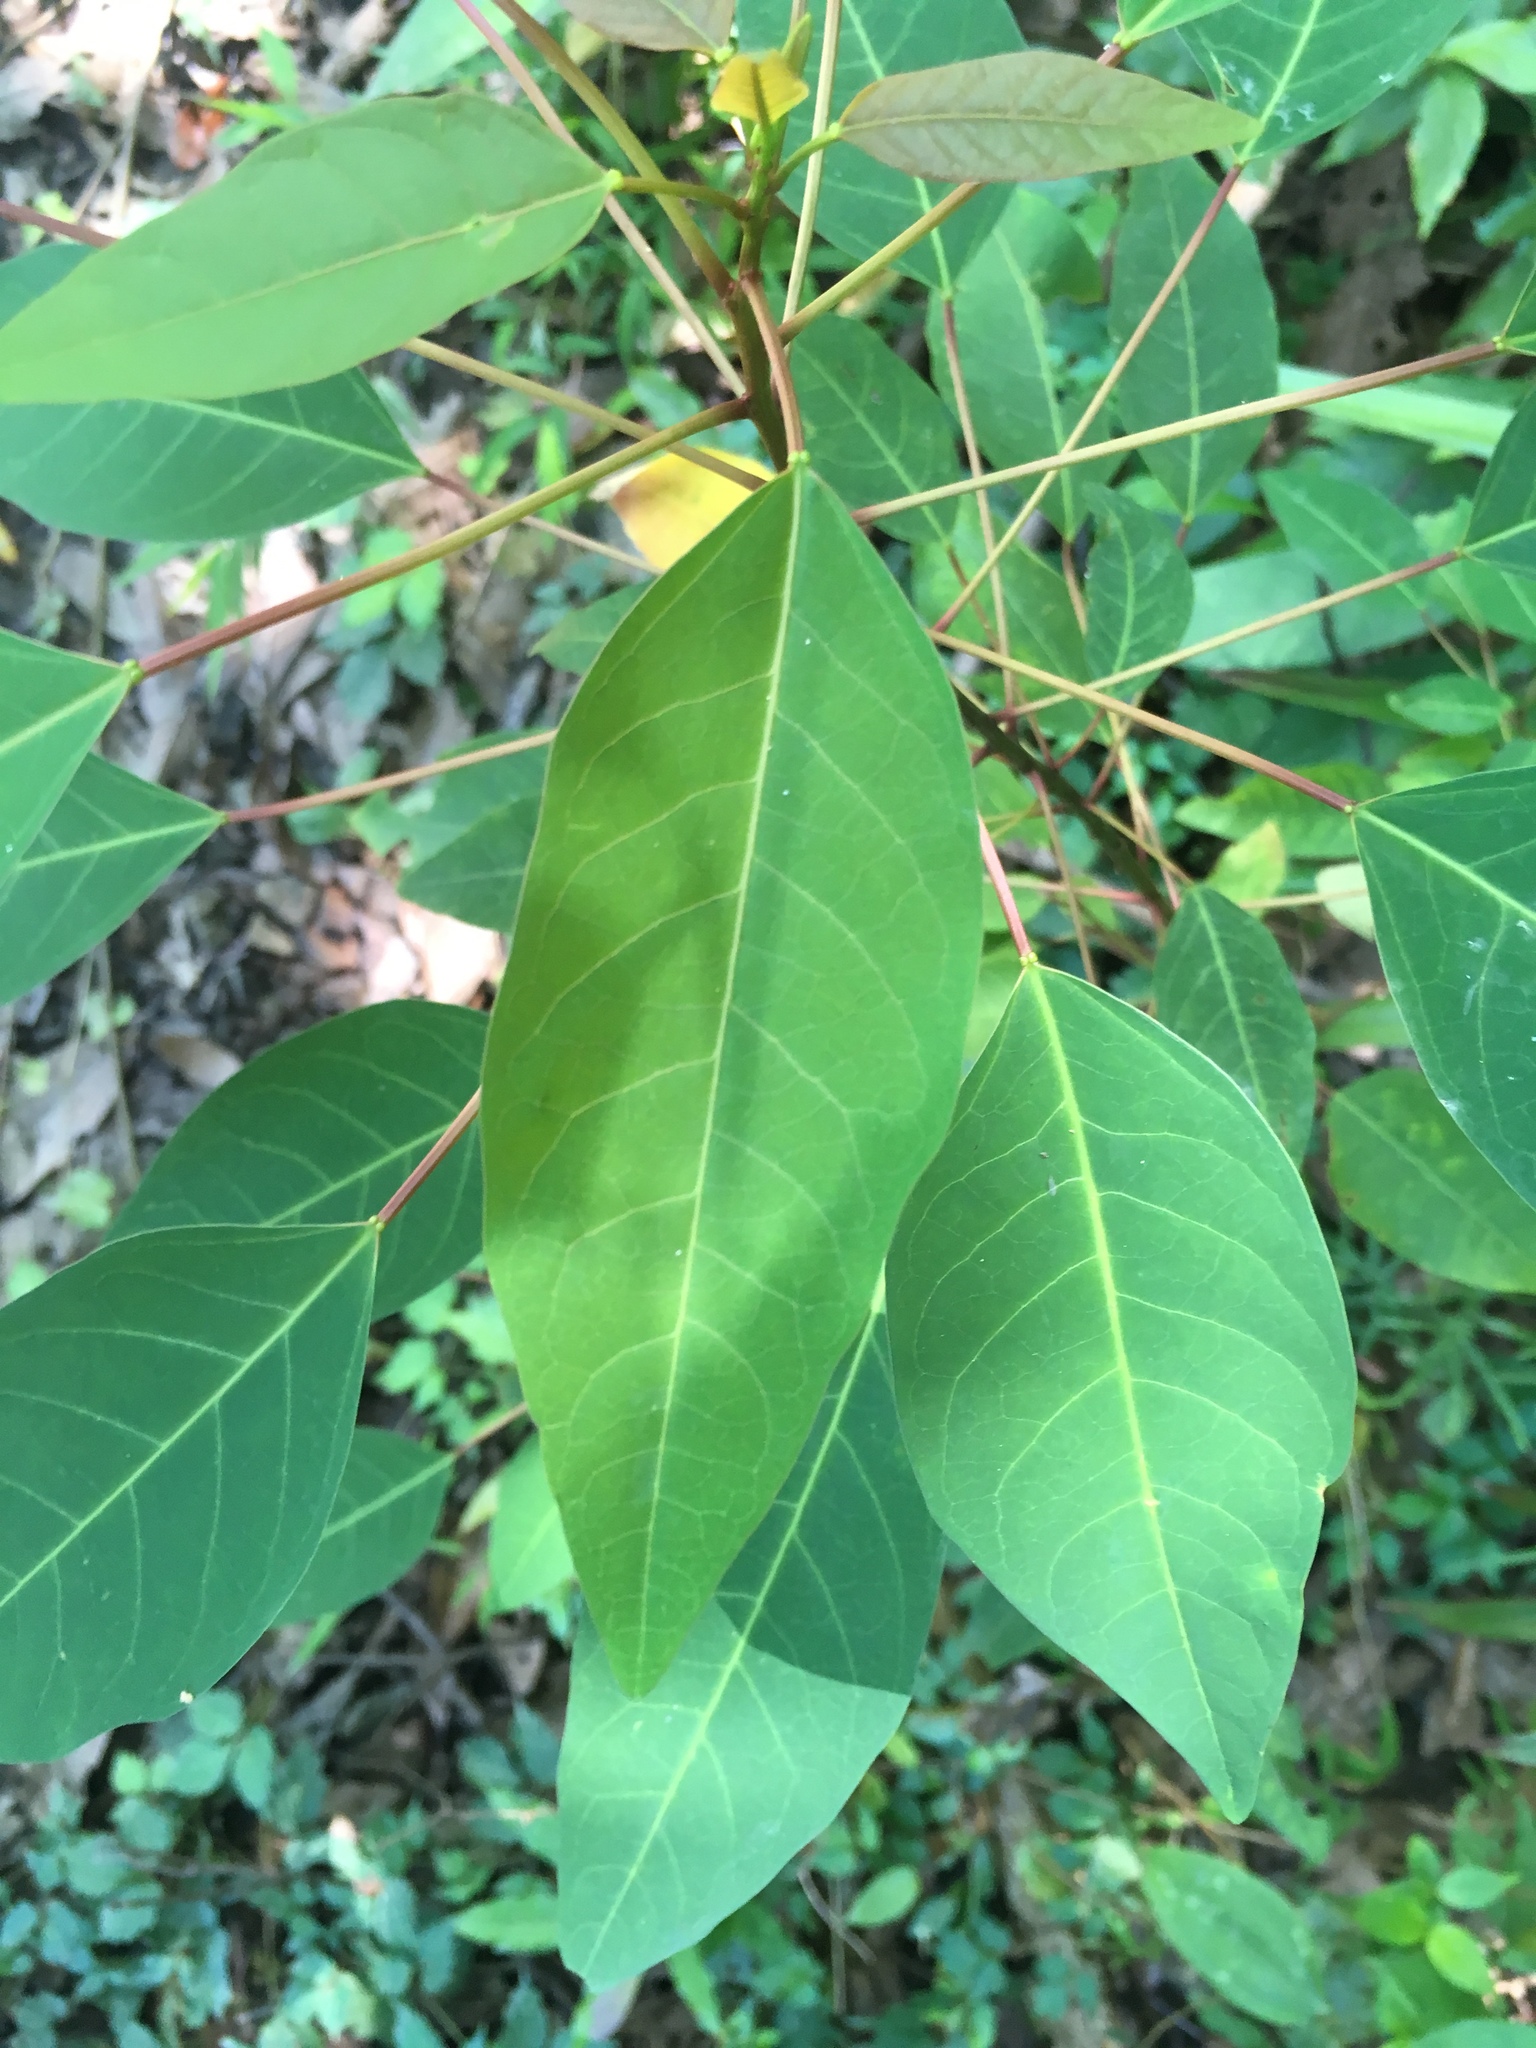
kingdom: Plantae
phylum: Tracheophyta
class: Magnoliopsida
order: Malpighiales
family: Euphorbiaceae
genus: Triadica
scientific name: Triadica cochinchinensis
